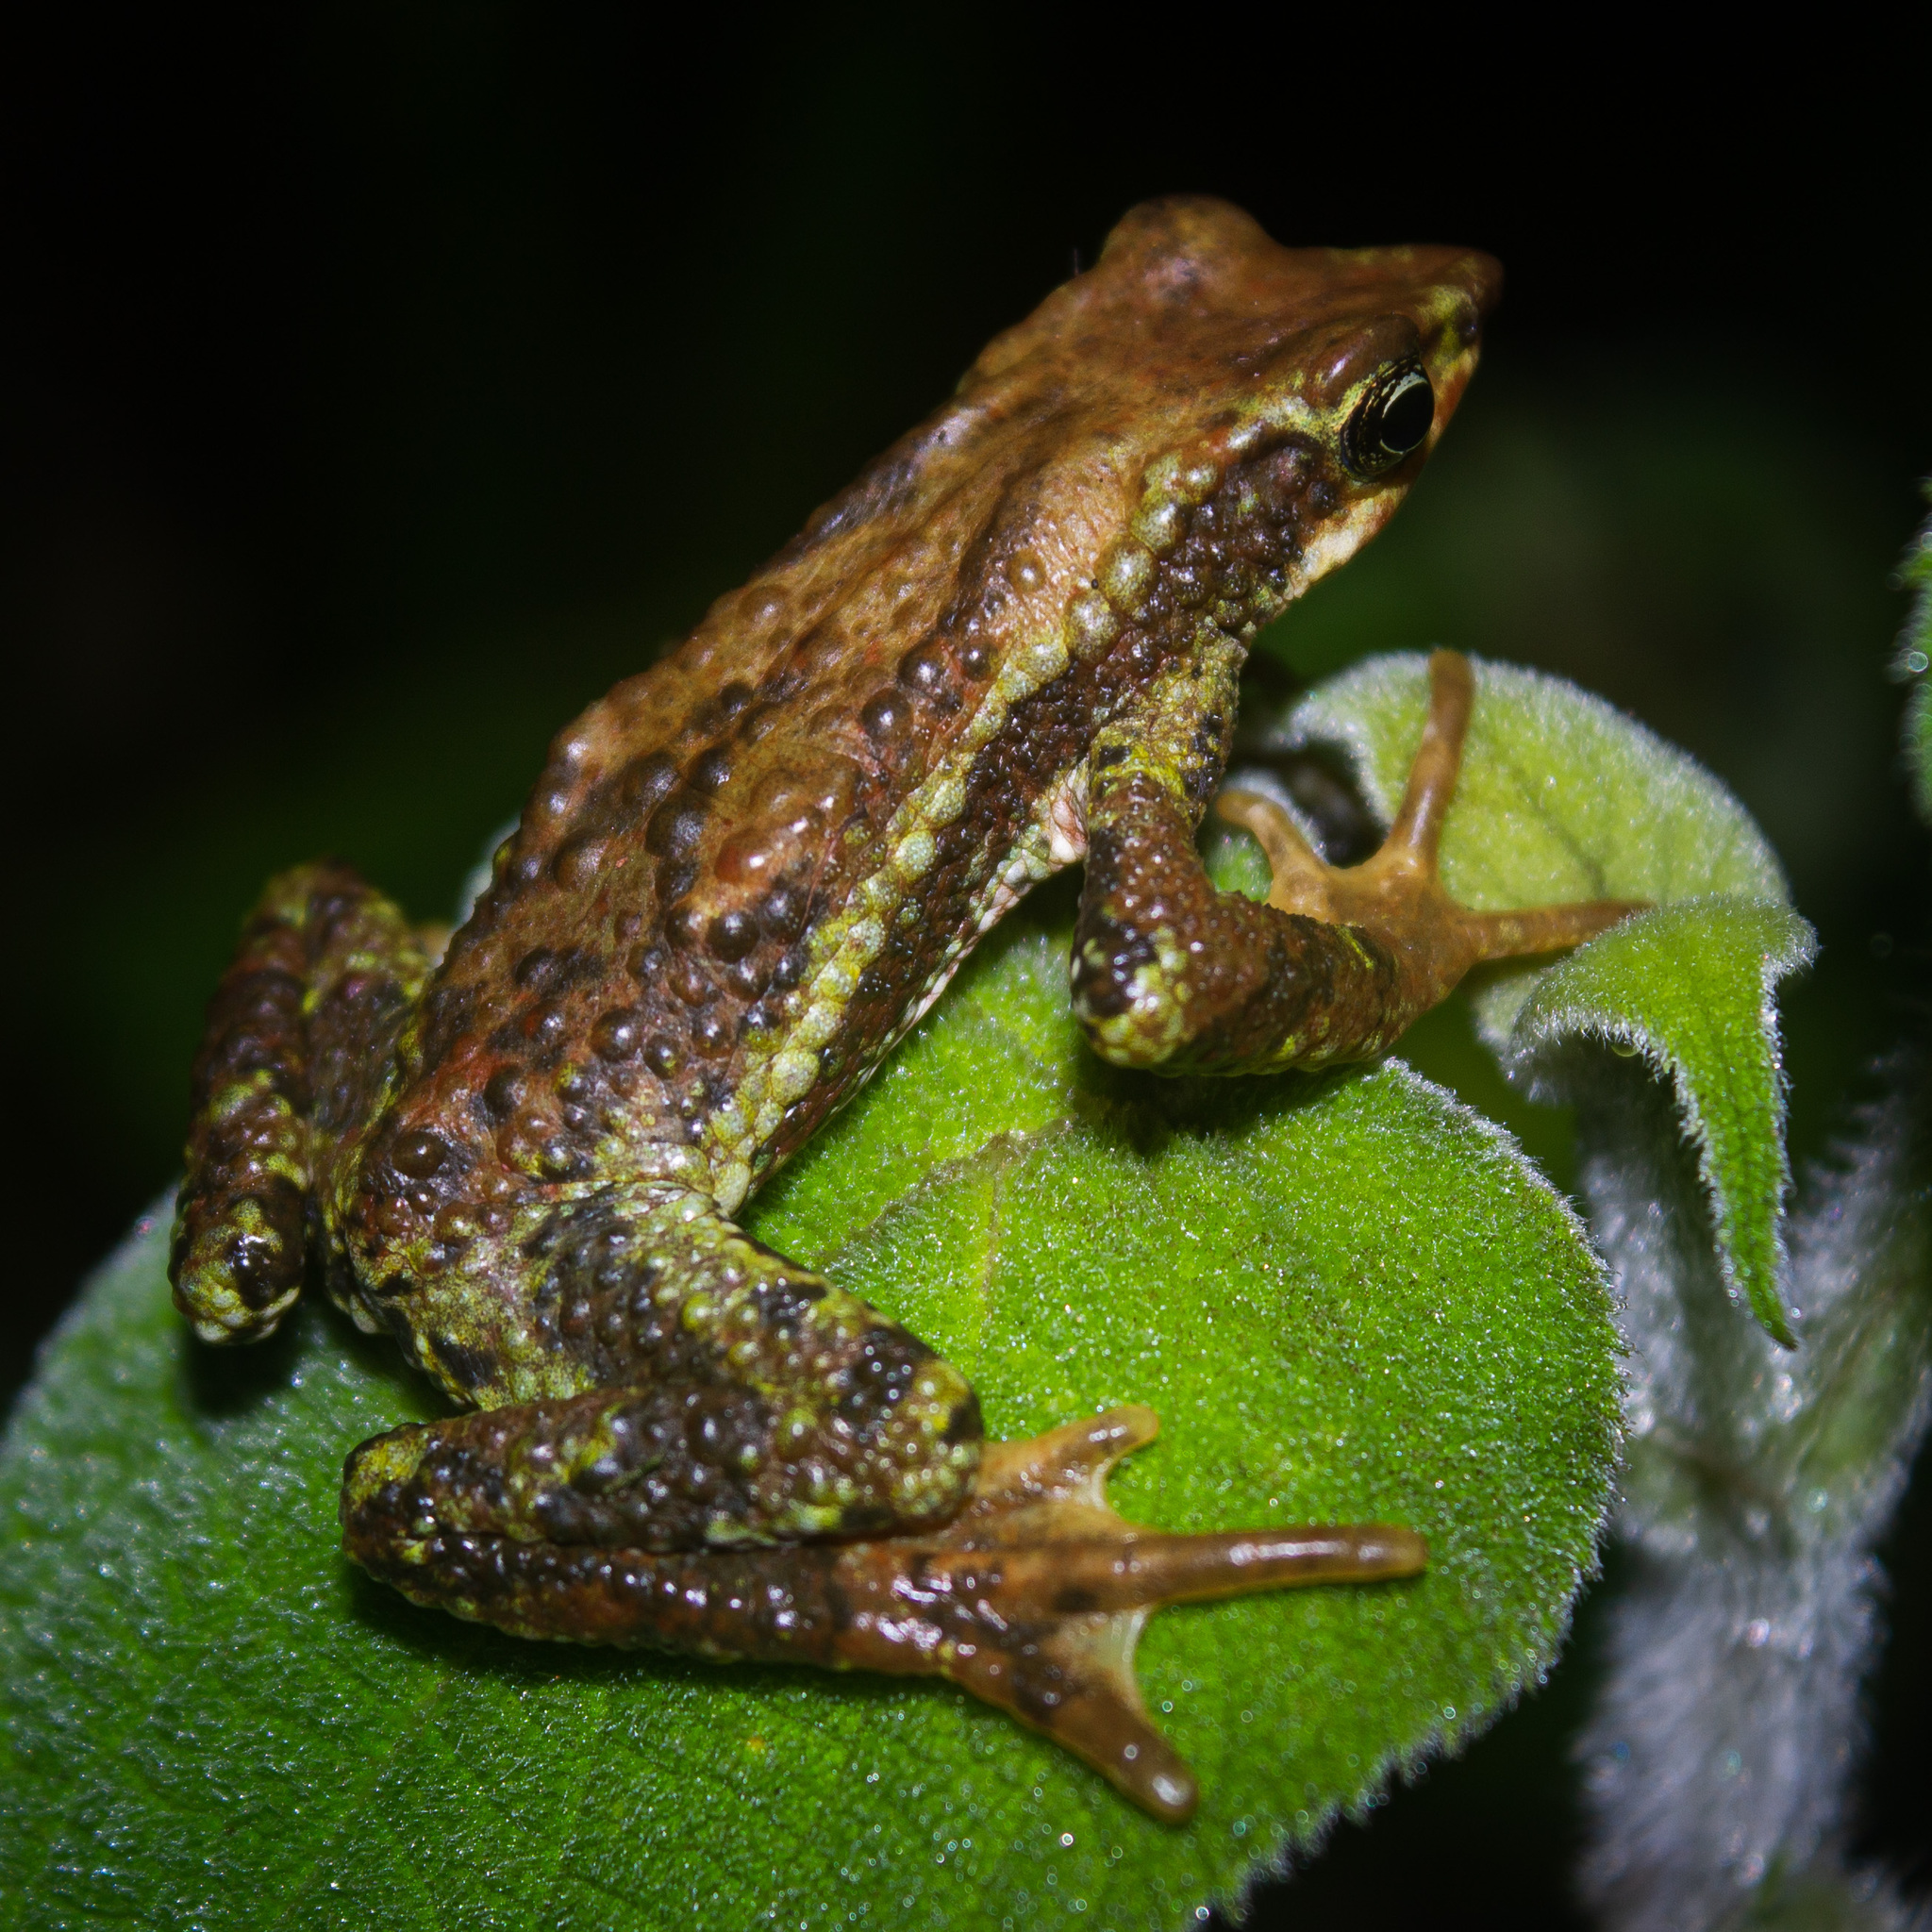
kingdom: Animalia
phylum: Chordata
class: Amphibia
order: Anura
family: Bufonidae
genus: Atelopus
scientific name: Atelopus laetissimus
